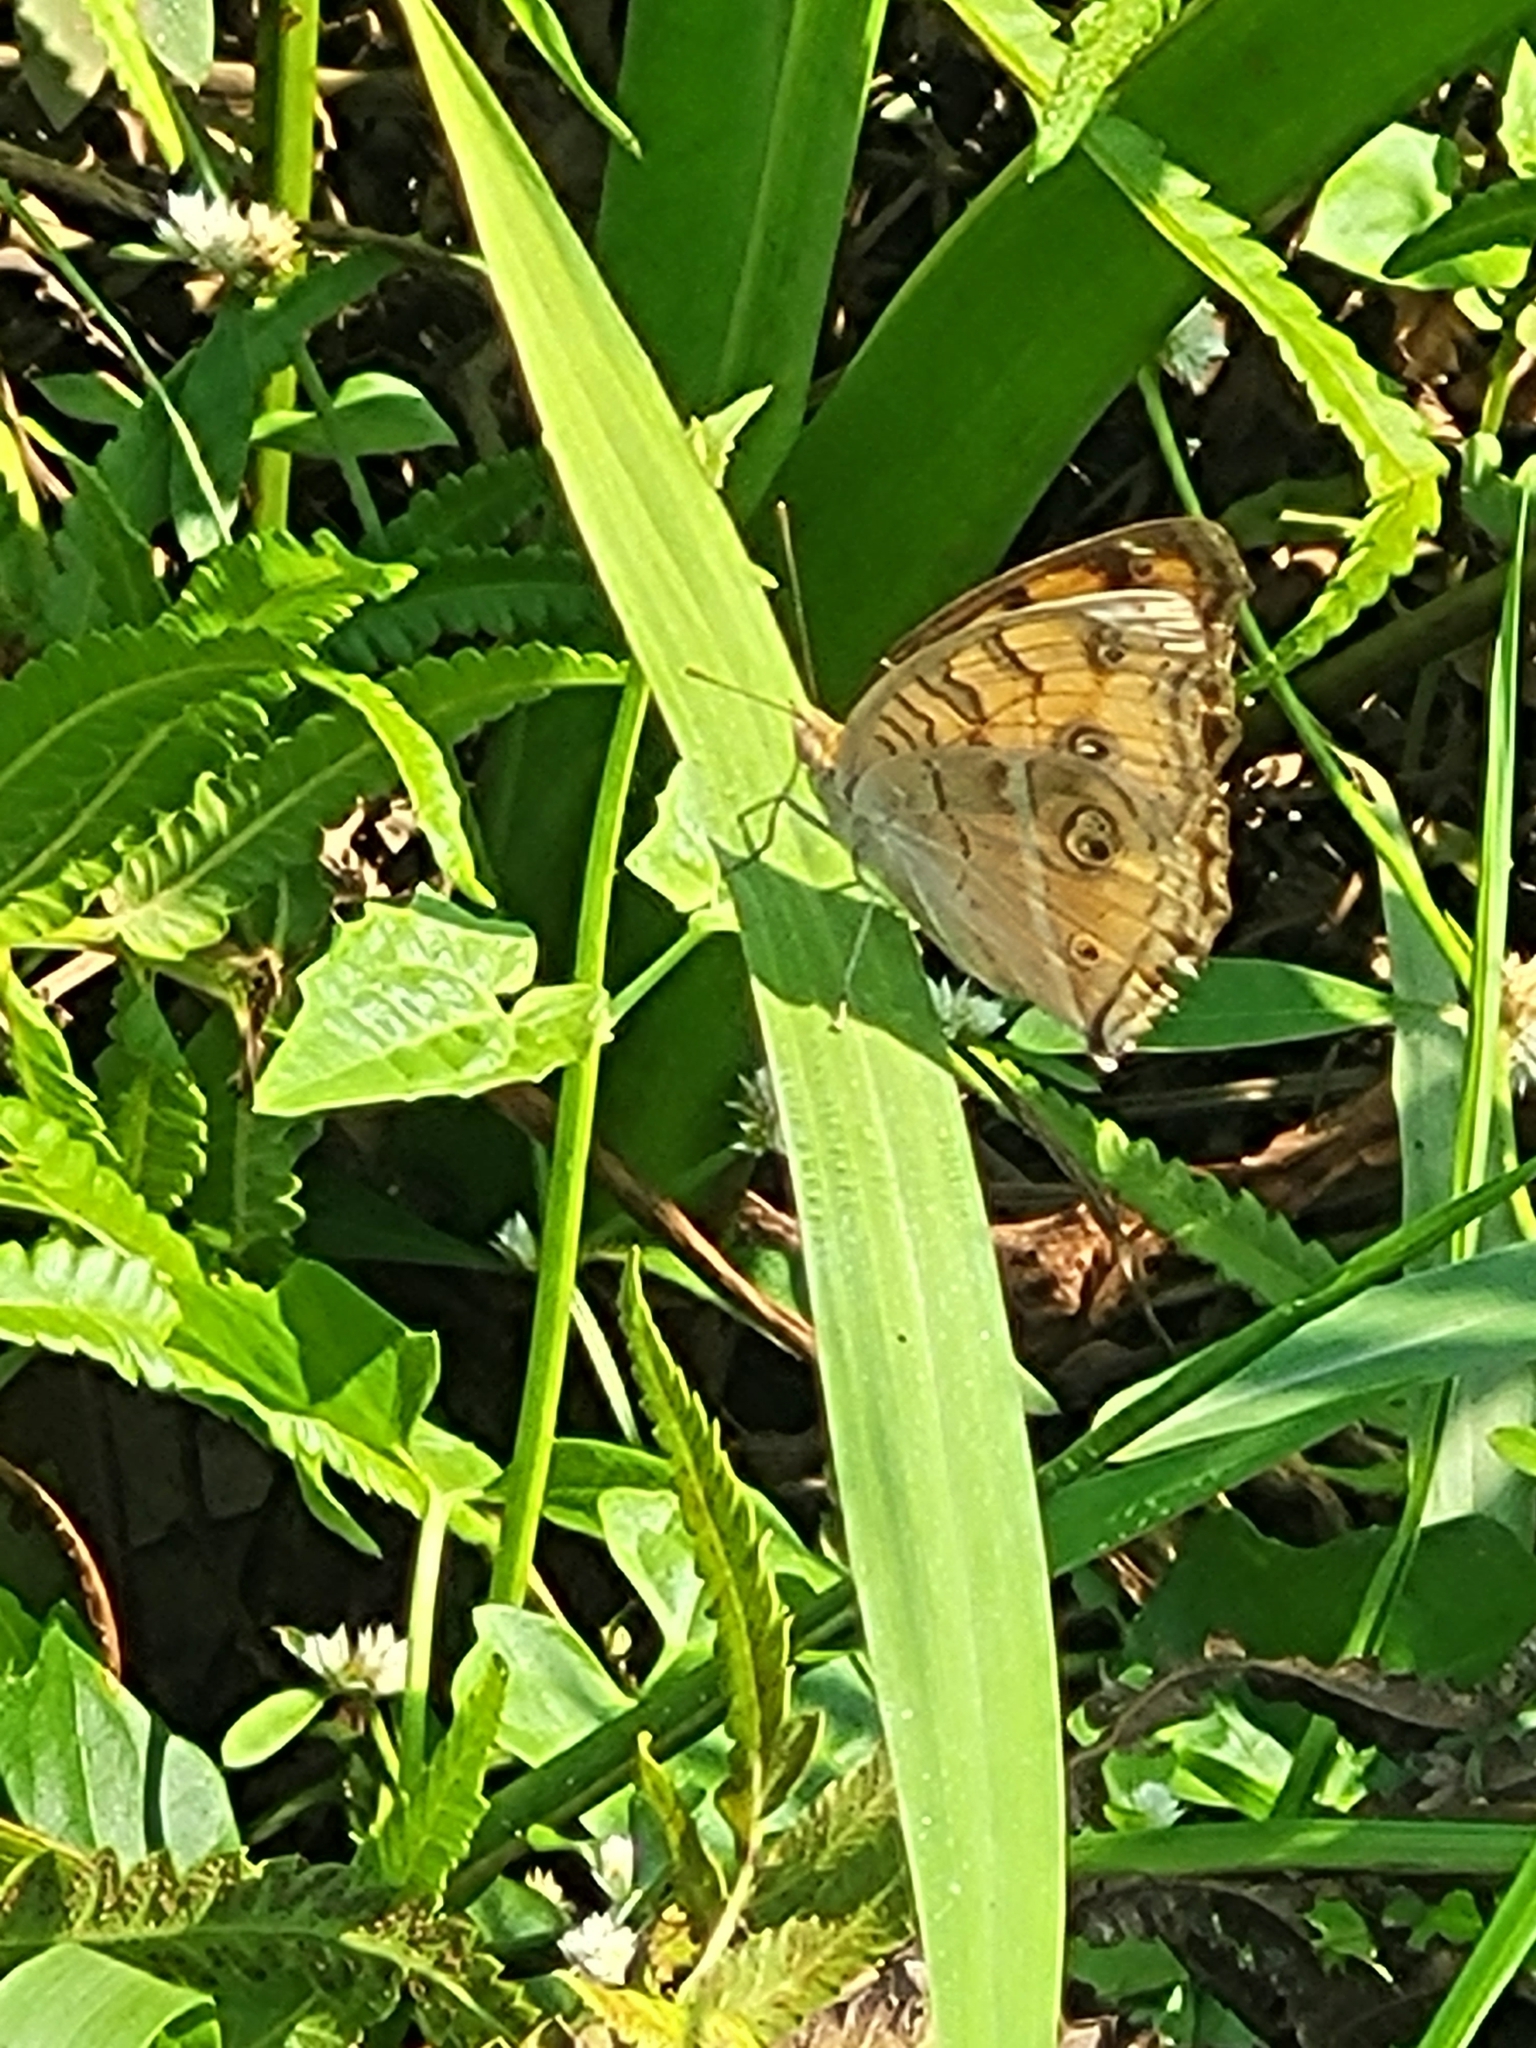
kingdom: Animalia
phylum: Arthropoda
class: Insecta
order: Lepidoptera
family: Nymphalidae
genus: Junonia
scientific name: Junonia almana
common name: Peacock pansy
